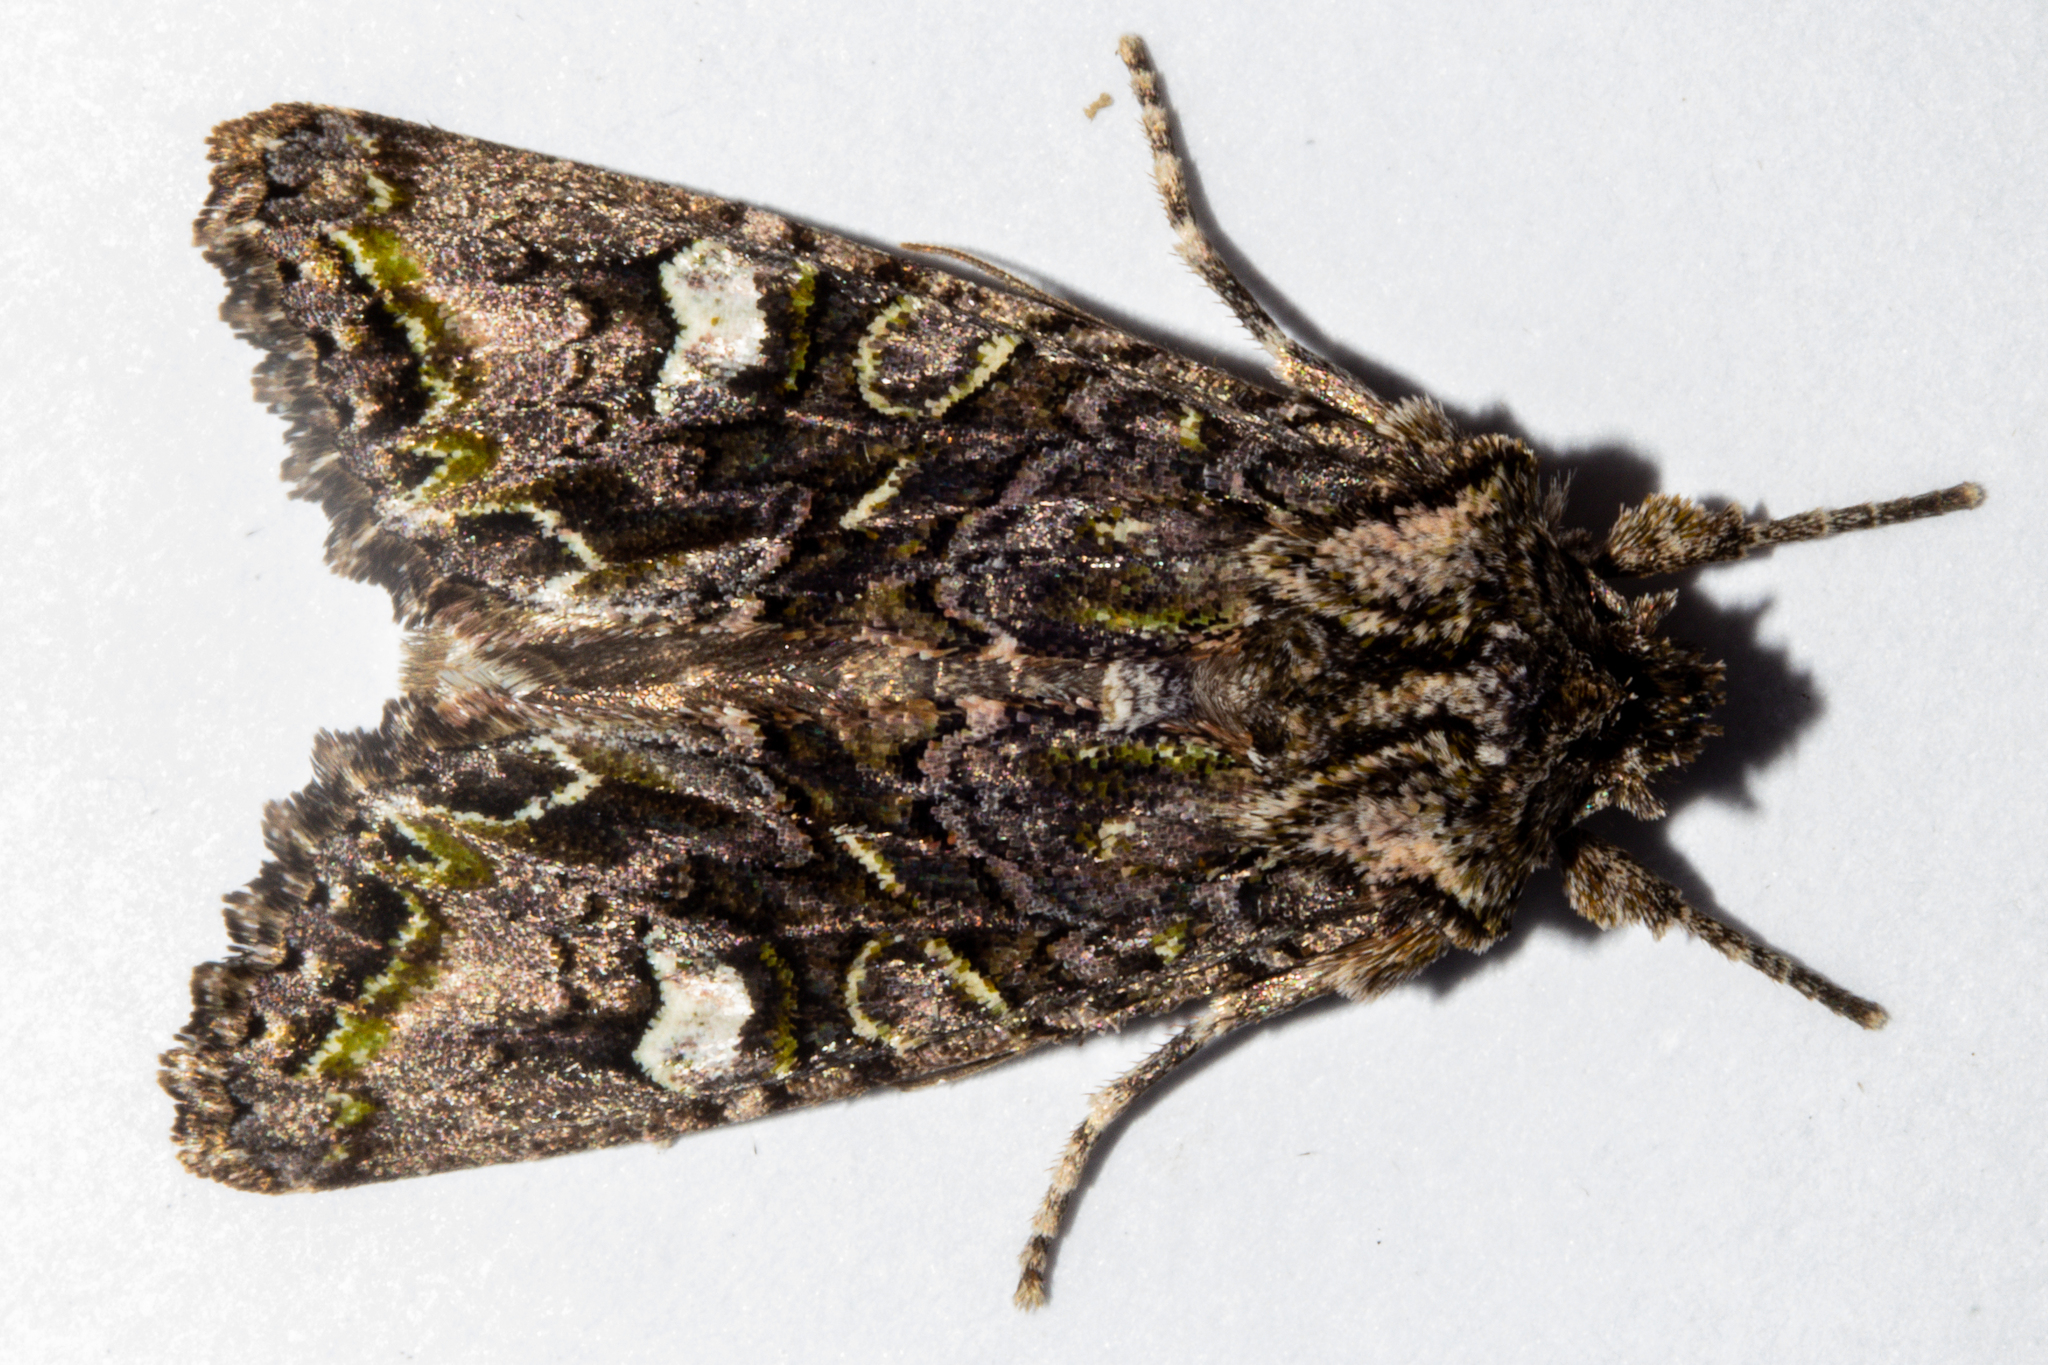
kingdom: Animalia
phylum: Arthropoda
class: Insecta
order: Lepidoptera
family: Noctuidae
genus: Ichneutica
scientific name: Ichneutica insignis
